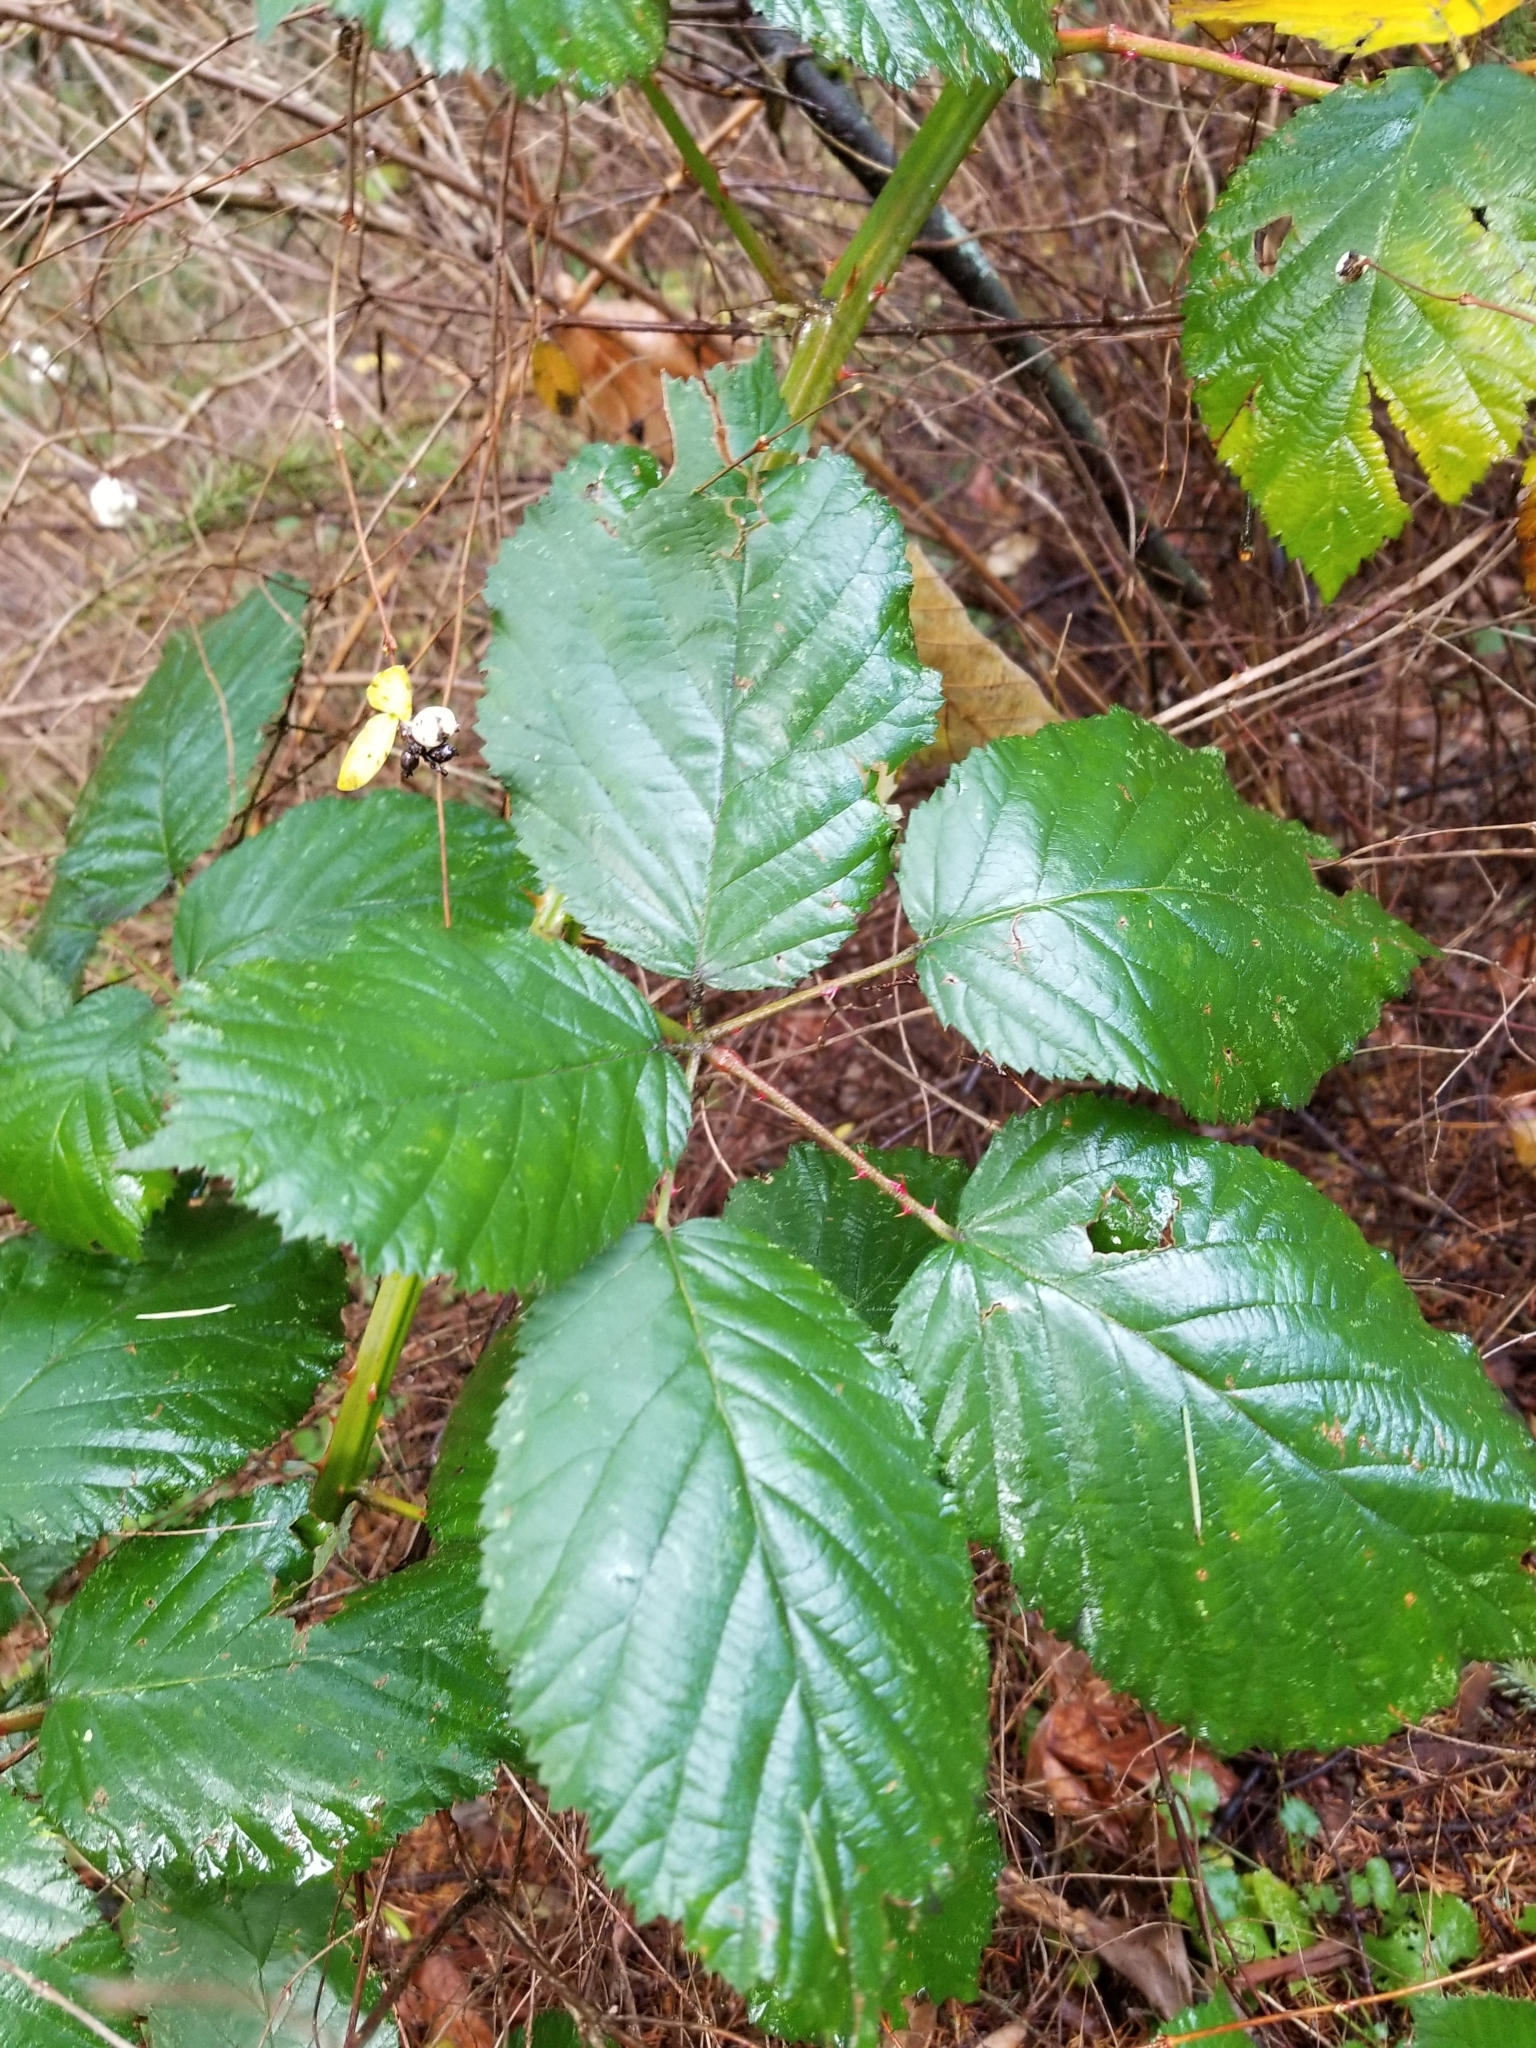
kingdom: Plantae
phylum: Tracheophyta
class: Magnoliopsida
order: Rosales
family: Rosaceae
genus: Rubus
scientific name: Rubus bifrons
